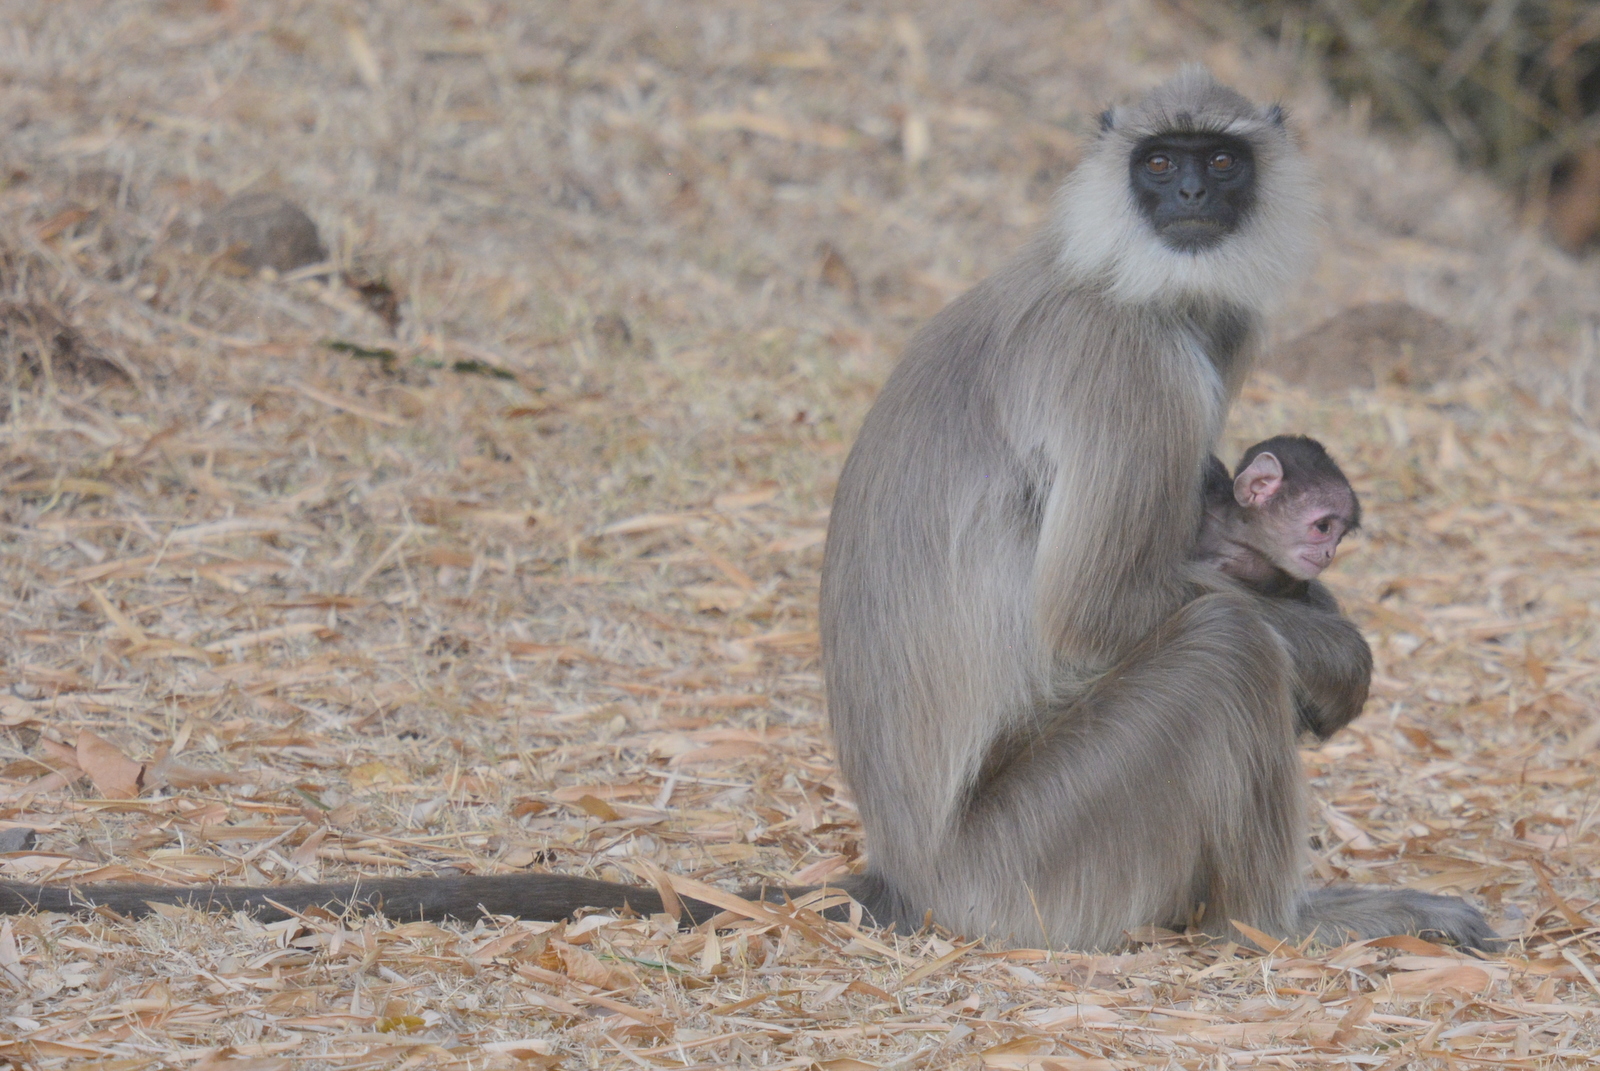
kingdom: Animalia
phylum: Chordata
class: Mammalia
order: Primates
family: Cercopithecidae
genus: Semnopithecus
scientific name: Semnopithecus priam
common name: Tufted gray langur
